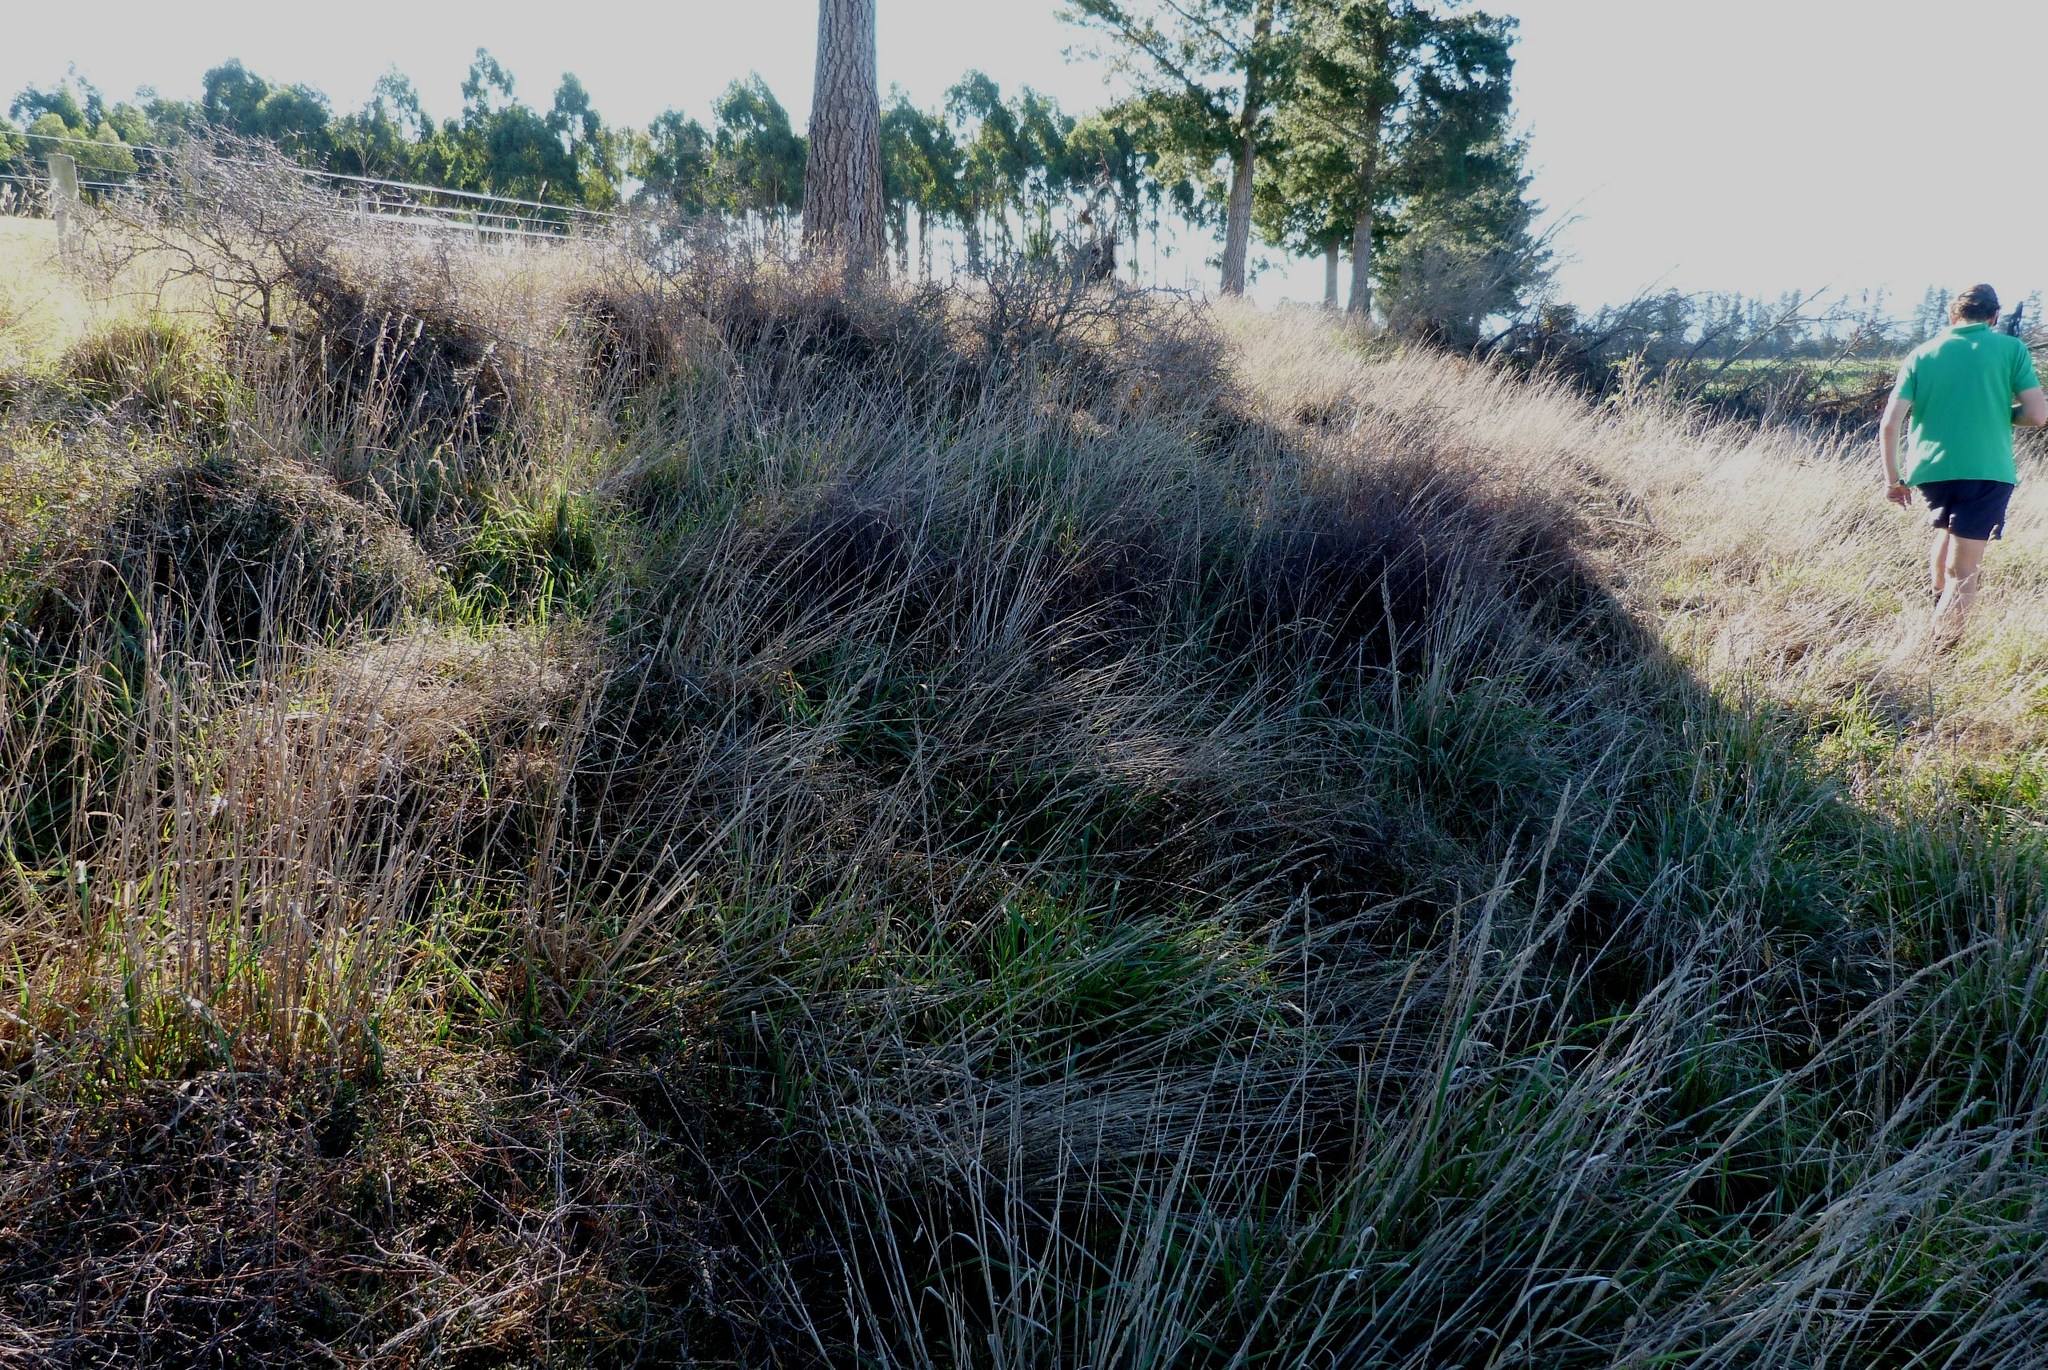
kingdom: Plantae
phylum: Tracheophyta
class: Magnoliopsida
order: Caryophyllales
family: Polygonaceae
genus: Muehlenbeckia
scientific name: Muehlenbeckia complexa
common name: Wireplant
